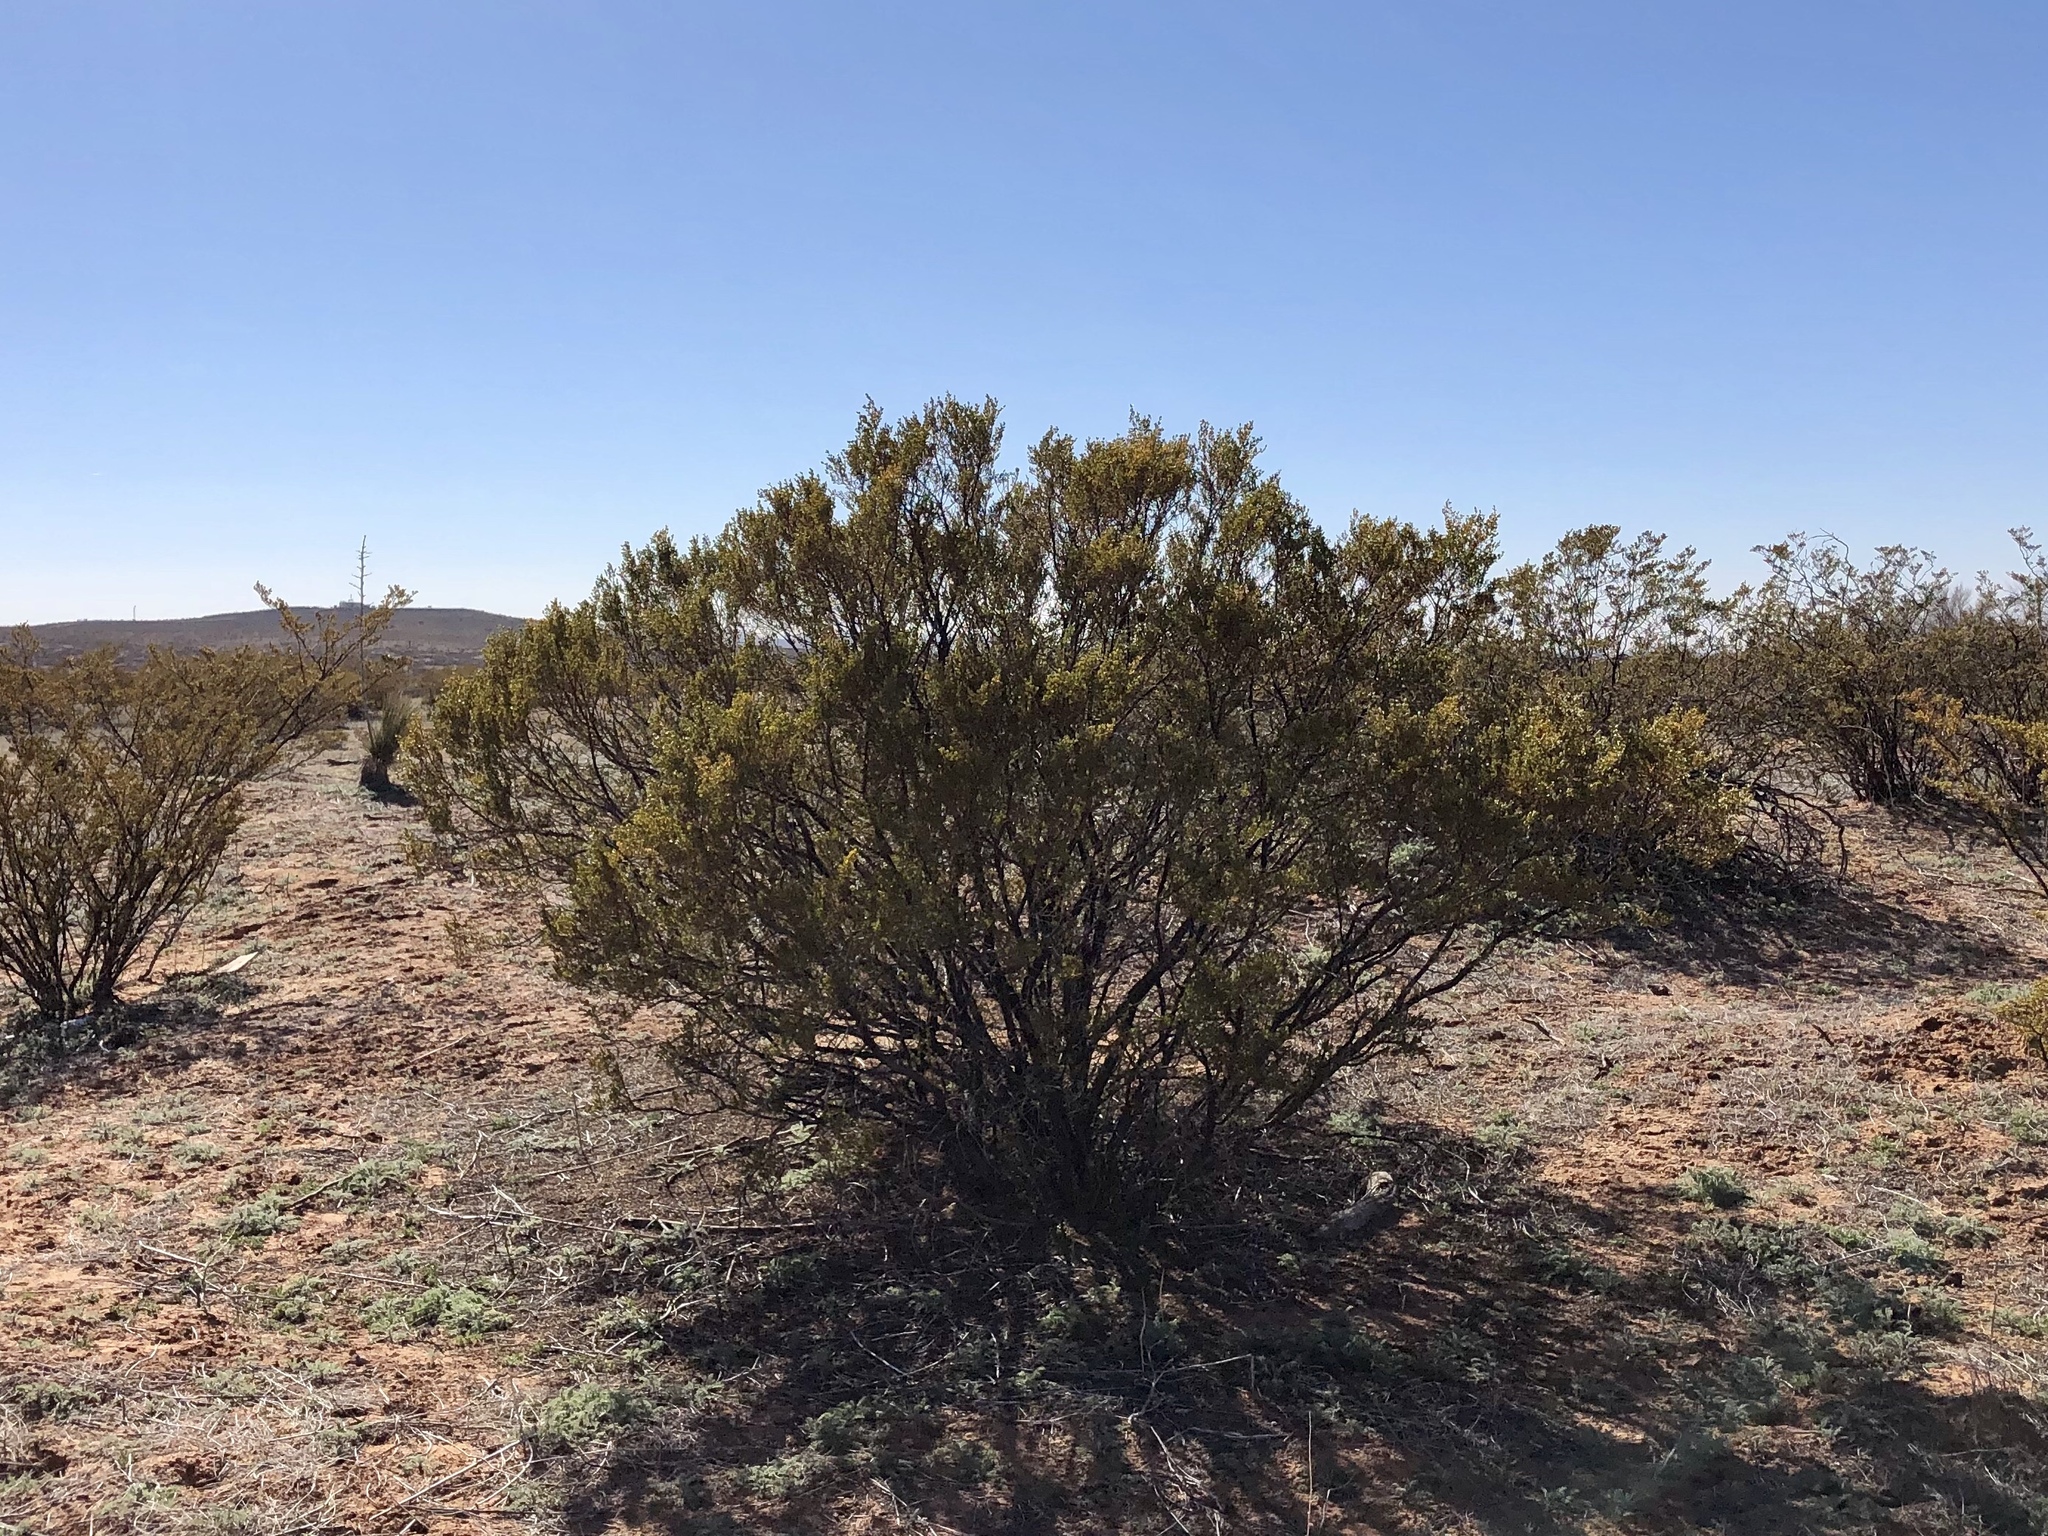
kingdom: Plantae
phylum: Tracheophyta
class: Magnoliopsida
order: Zygophyllales
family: Zygophyllaceae
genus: Larrea
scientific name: Larrea tridentata
